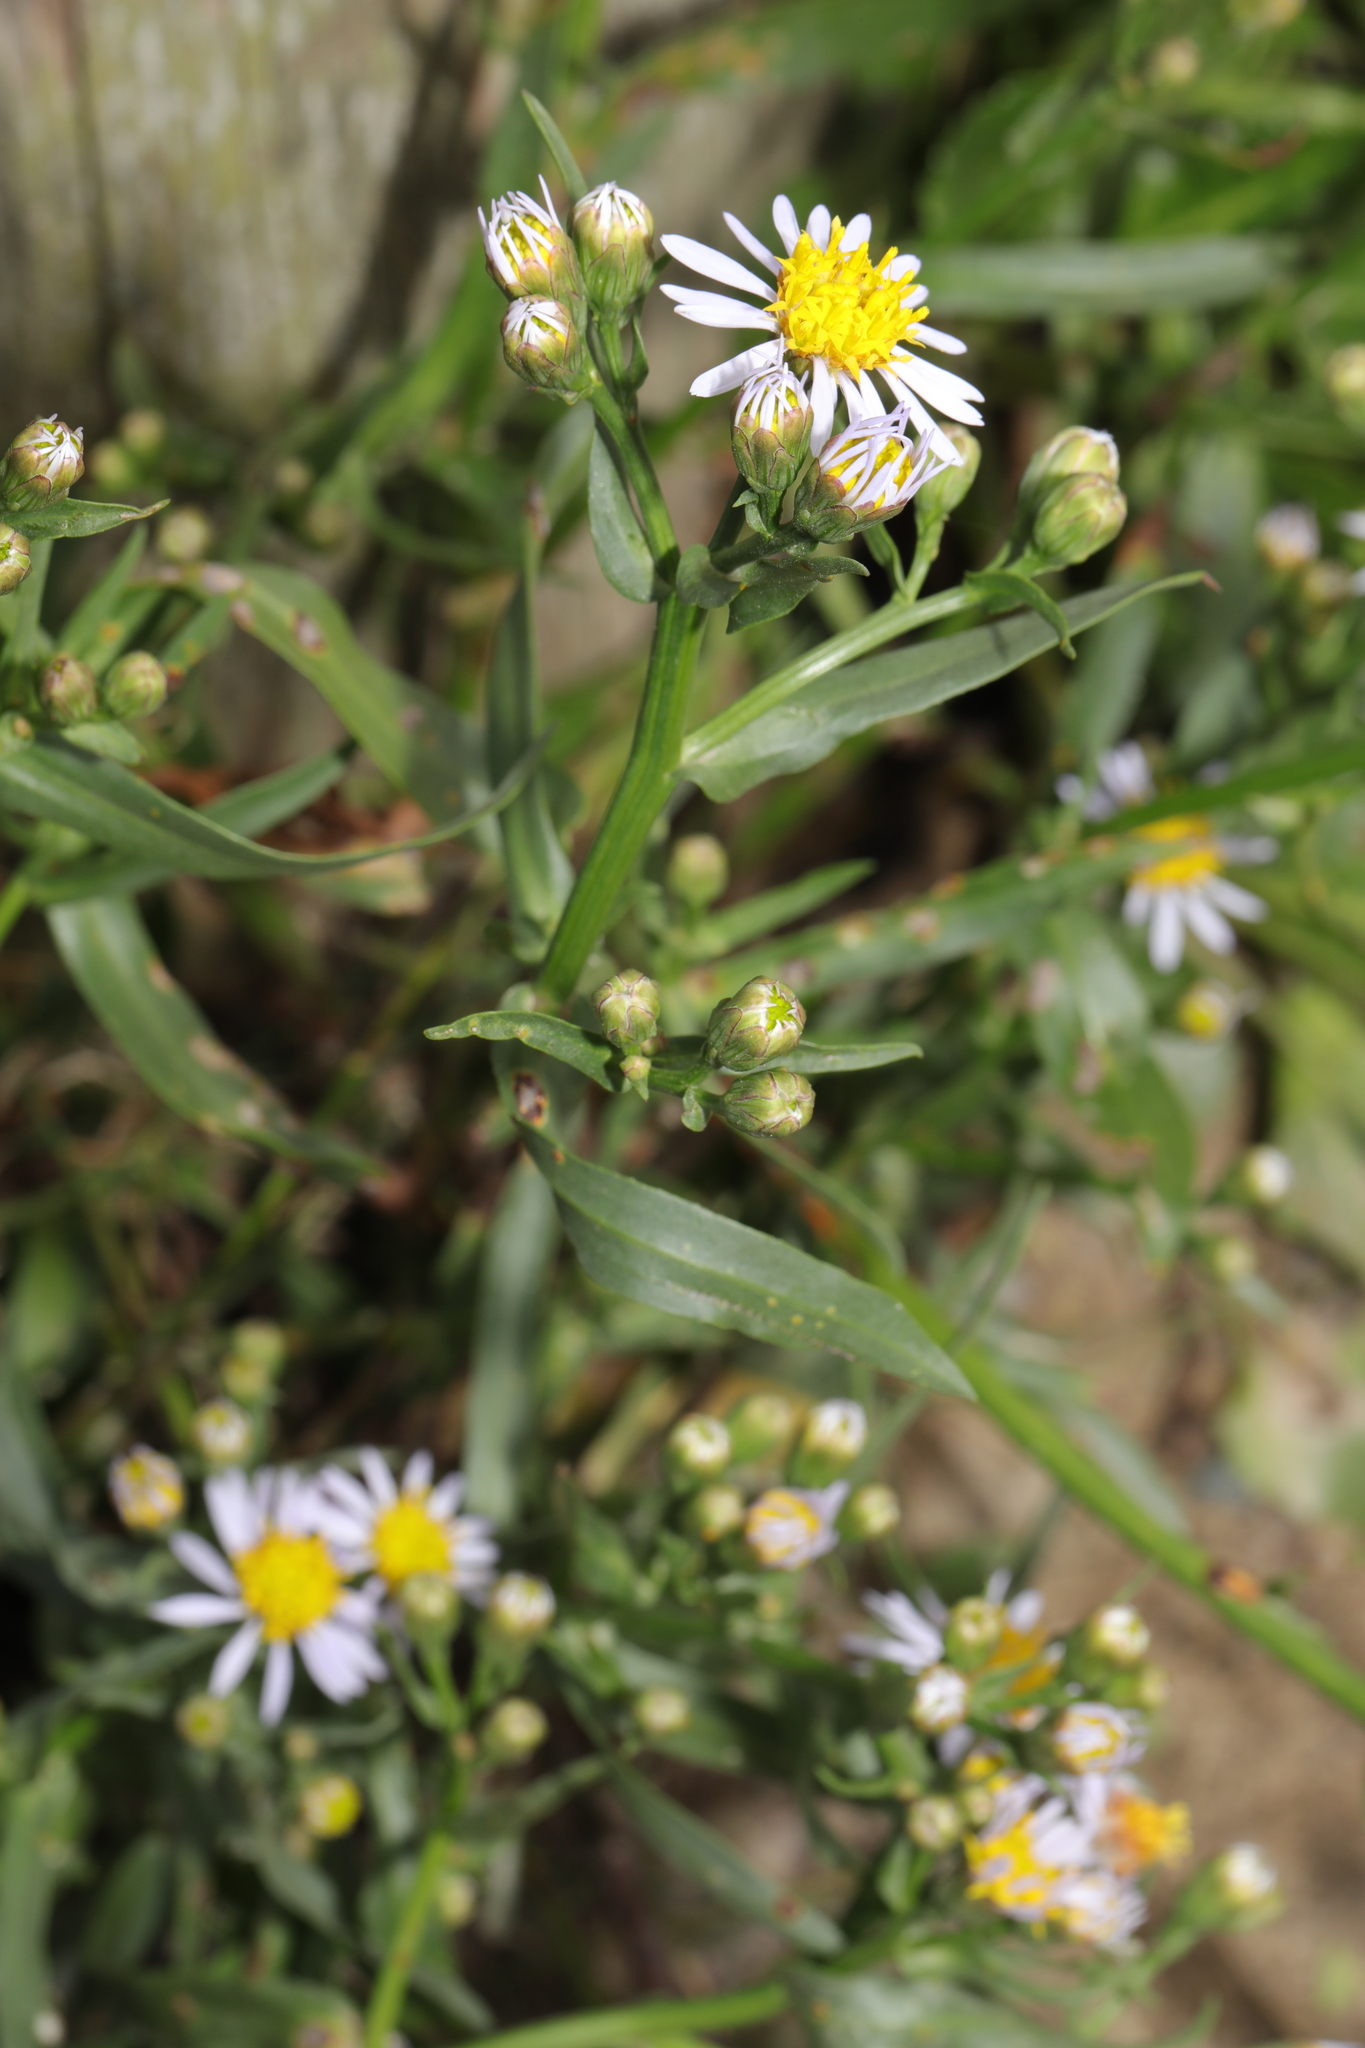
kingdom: Plantae
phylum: Tracheophyta
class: Magnoliopsida
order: Asterales
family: Asteraceae
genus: Tripolium
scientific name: Tripolium pannonicum
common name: Sea aster
